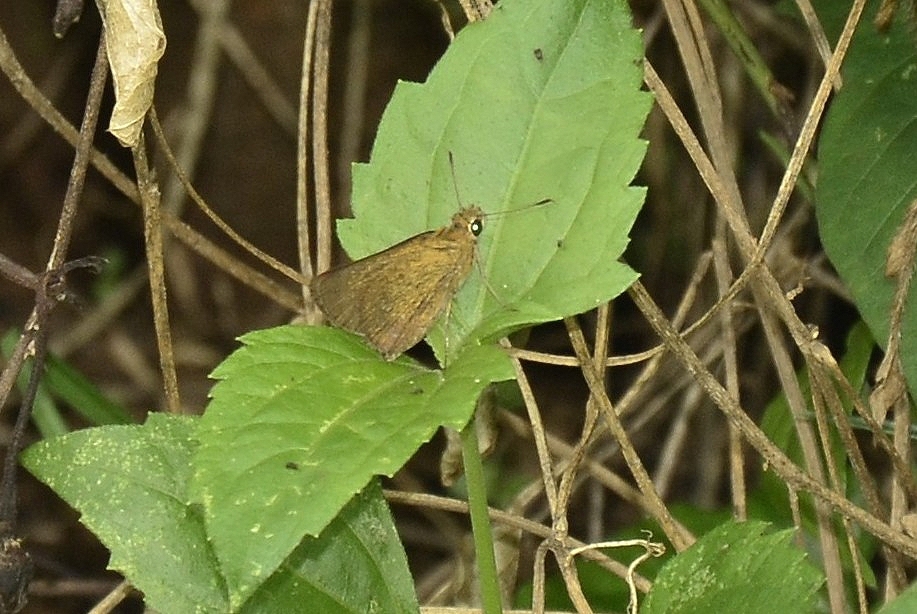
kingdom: Animalia
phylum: Arthropoda
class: Insecta
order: Lepidoptera
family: Hesperiidae
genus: Iambrix
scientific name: Iambrix salsala
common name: Chestnut bob
